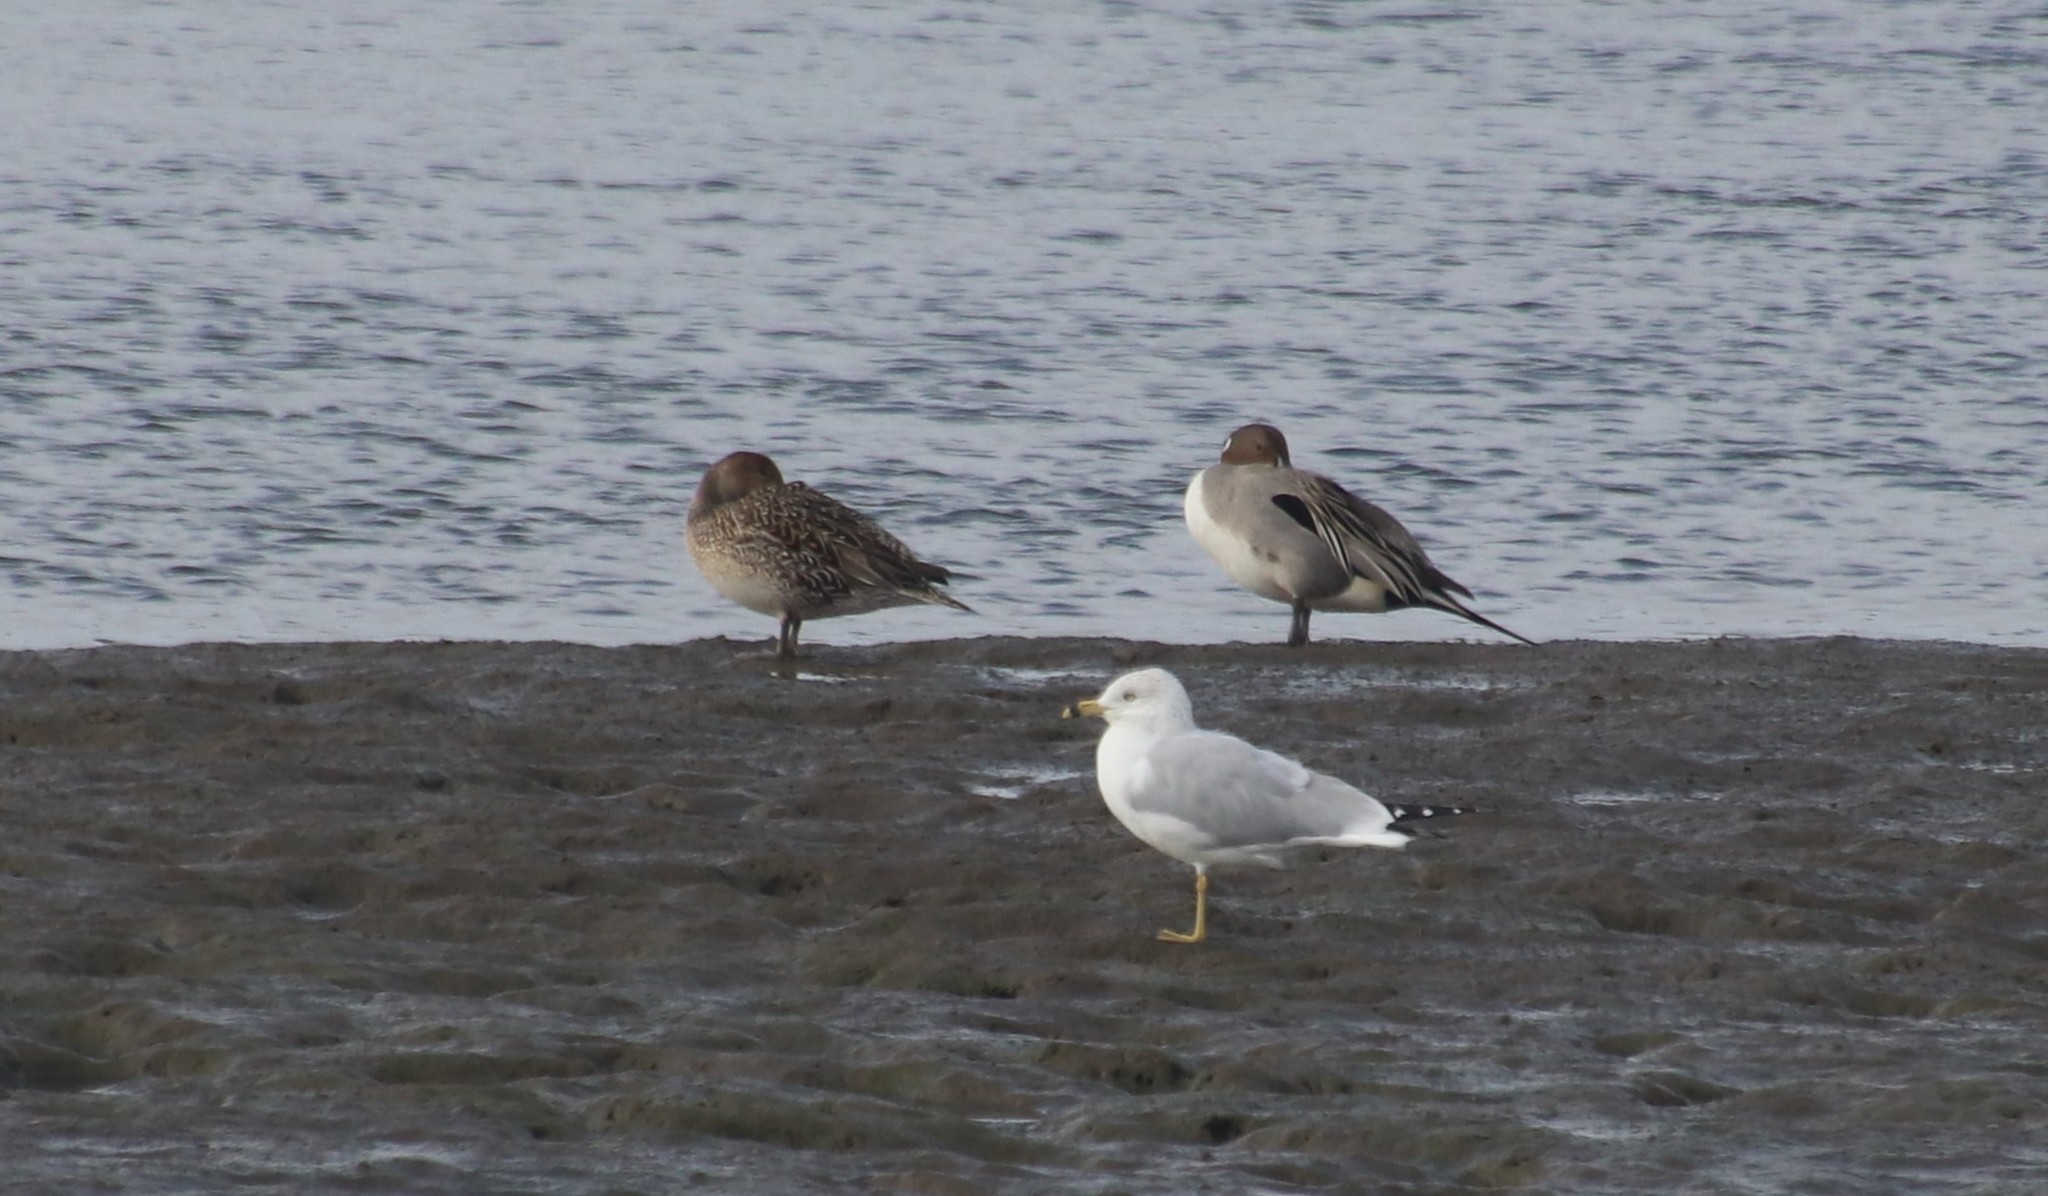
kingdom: Animalia
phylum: Chordata
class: Aves
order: Anseriformes
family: Anatidae
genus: Anas
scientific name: Anas acuta
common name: Northern pintail
